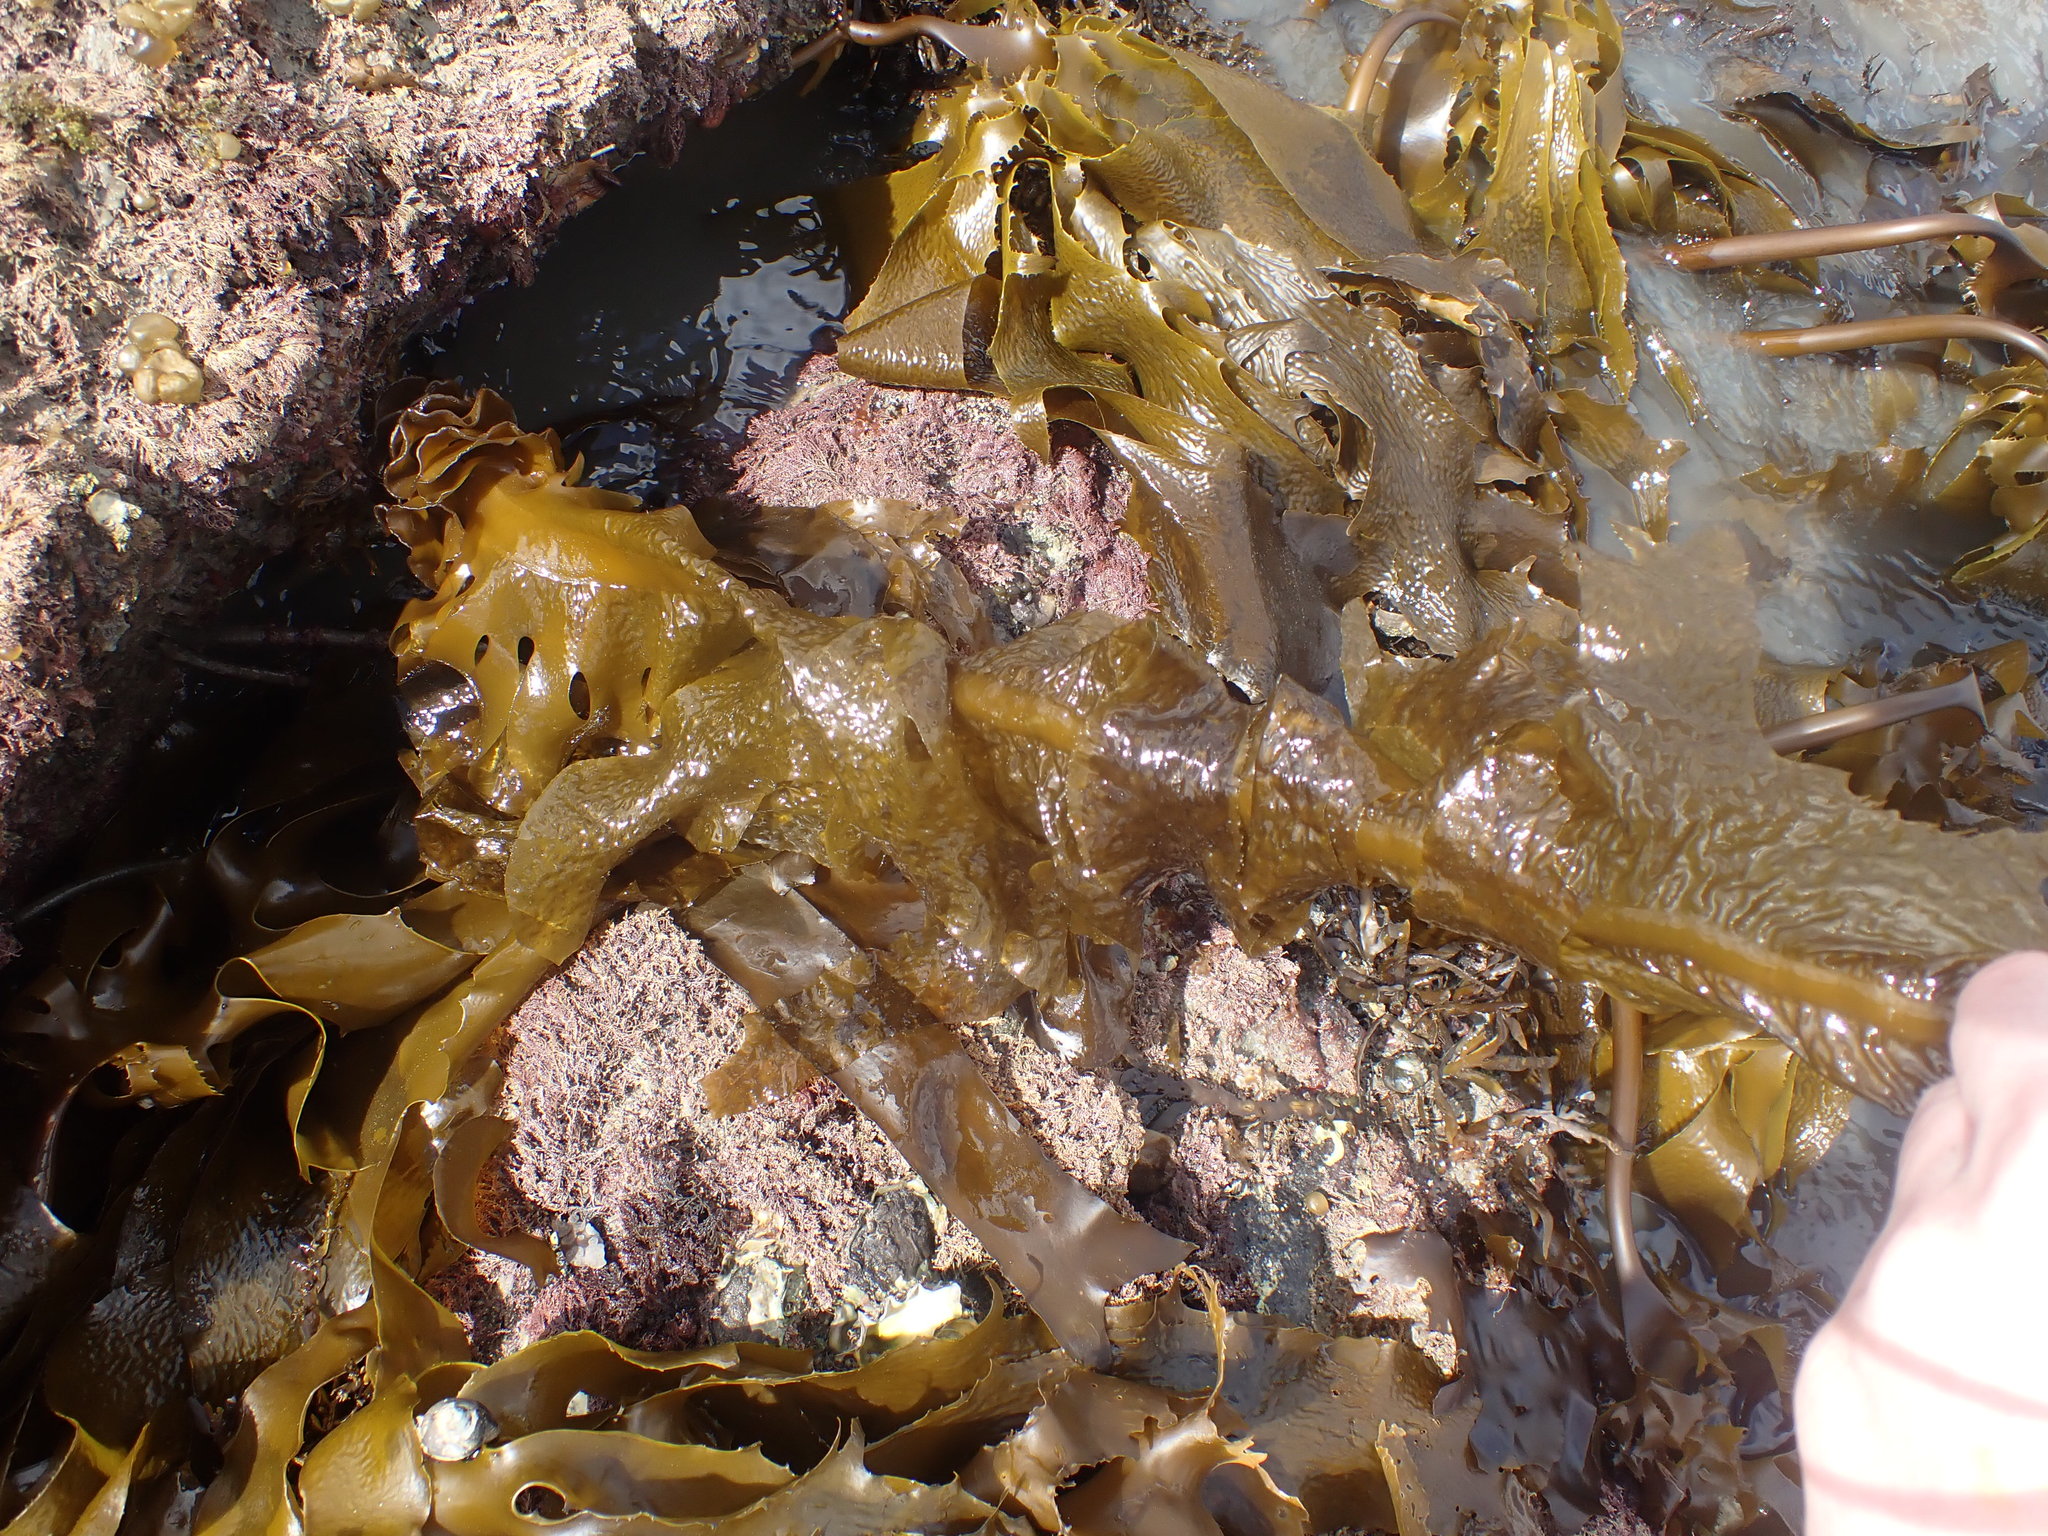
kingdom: Chromista
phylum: Ochrophyta
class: Phaeophyceae
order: Laminariales
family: Alariaceae
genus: Undaria
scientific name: Undaria pinnatifida
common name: Asian kelp
